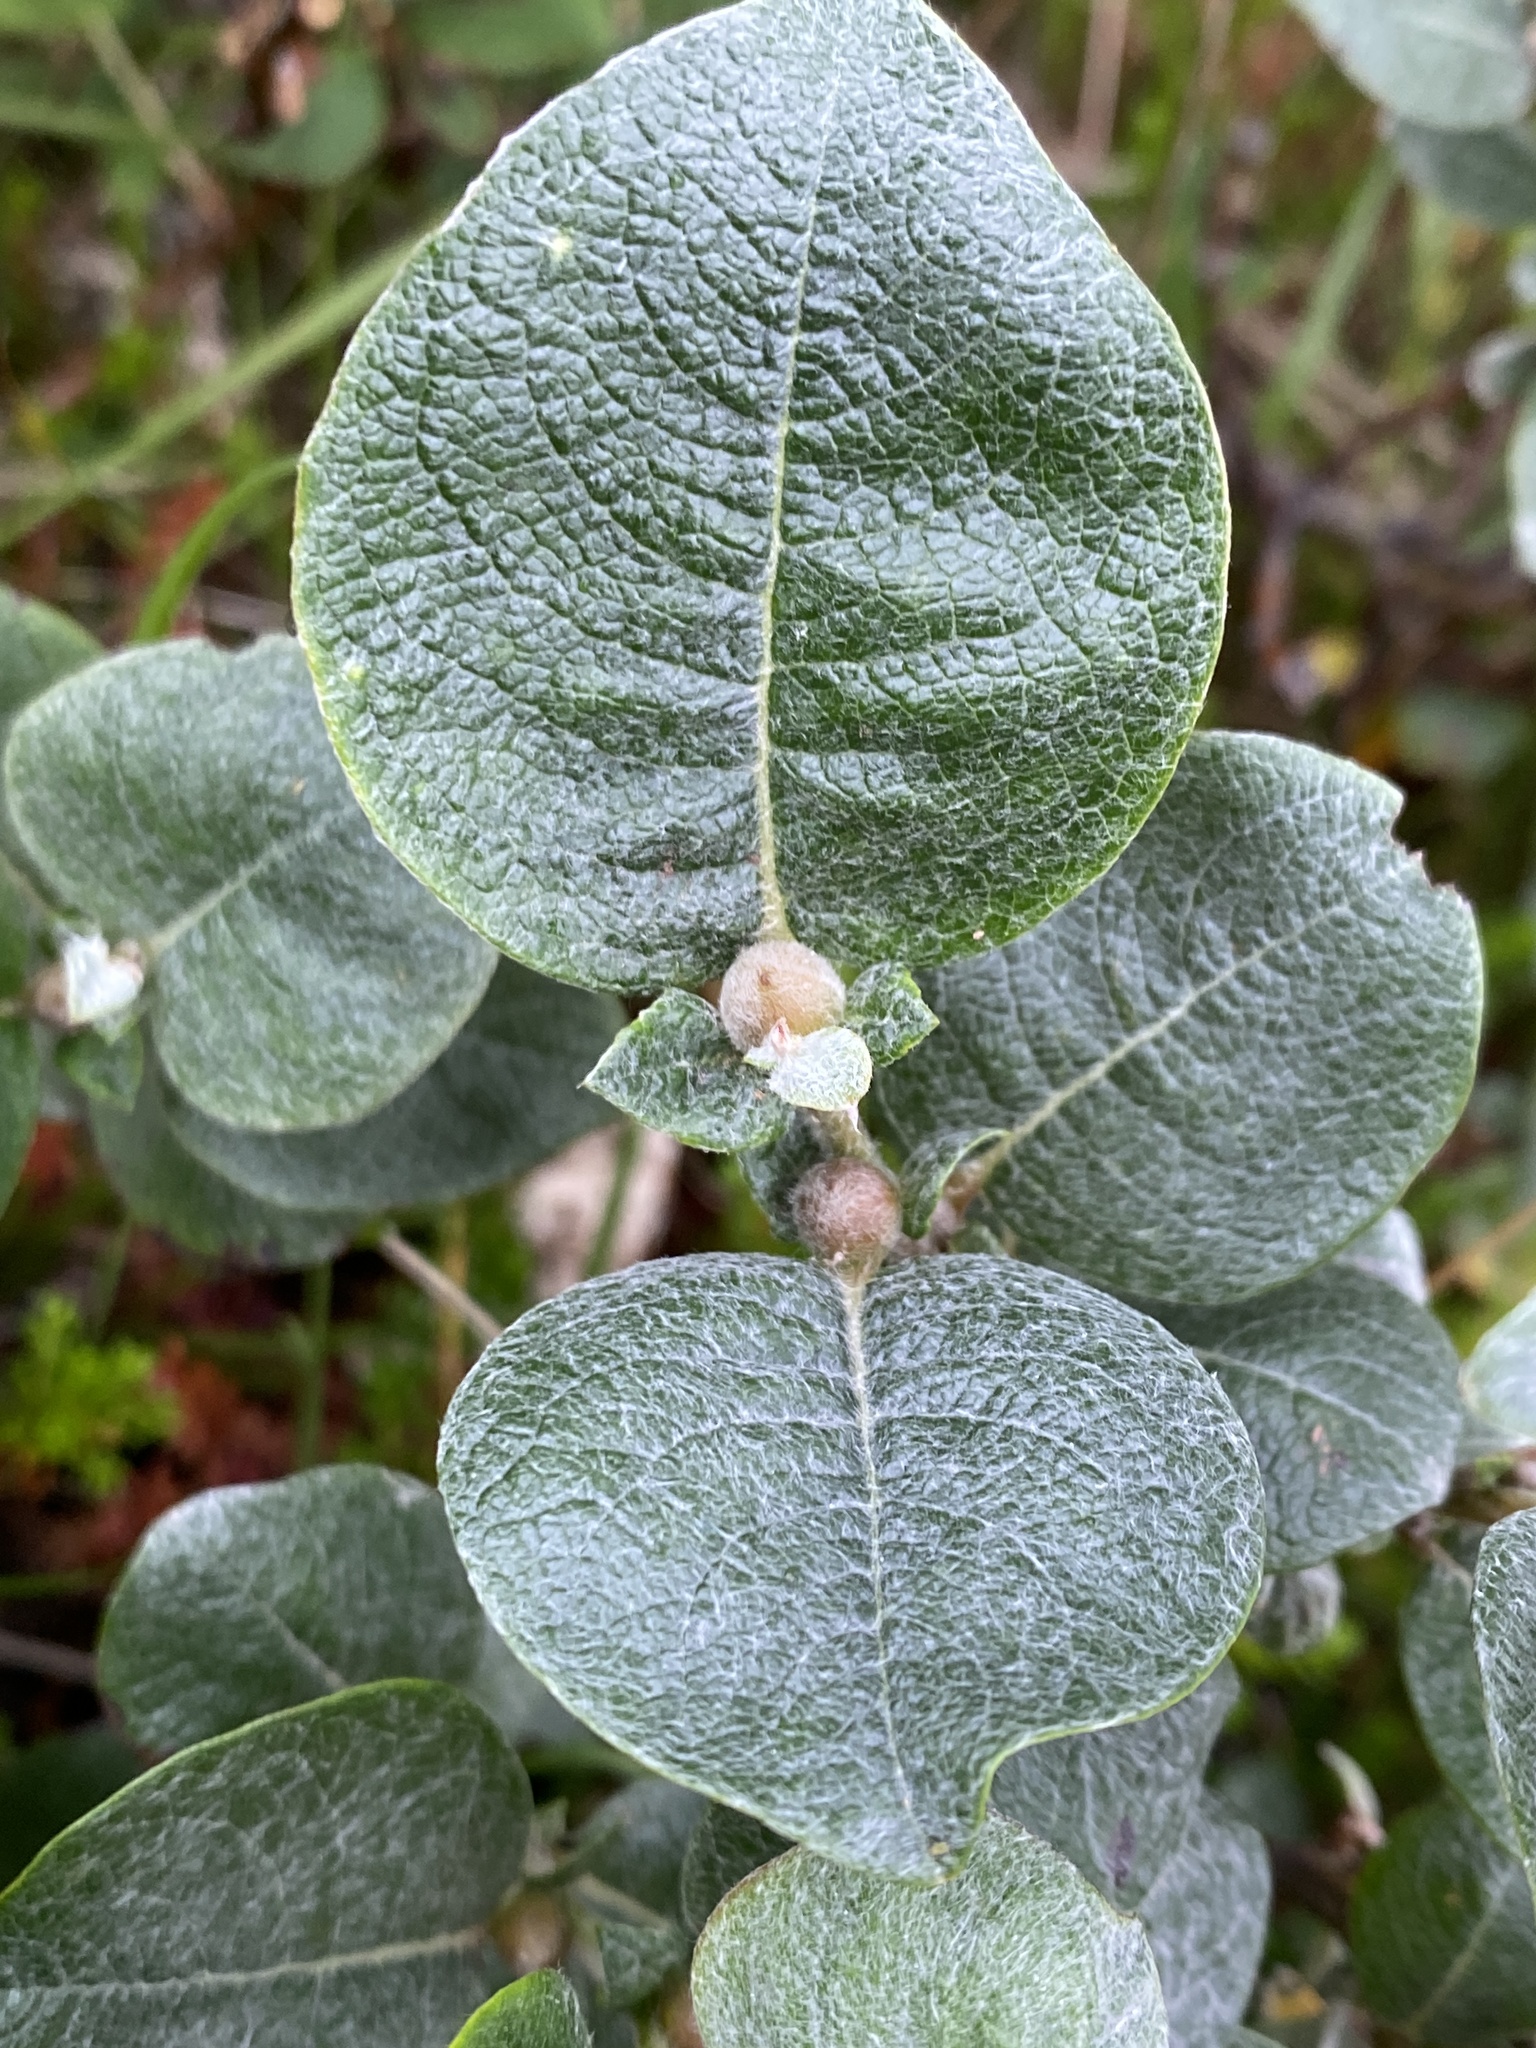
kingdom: Plantae
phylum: Tracheophyta
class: Magnoliopsida
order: Malpighiales
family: Salicaceae
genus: Salix
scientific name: Salix lanata
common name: Woolly willow
